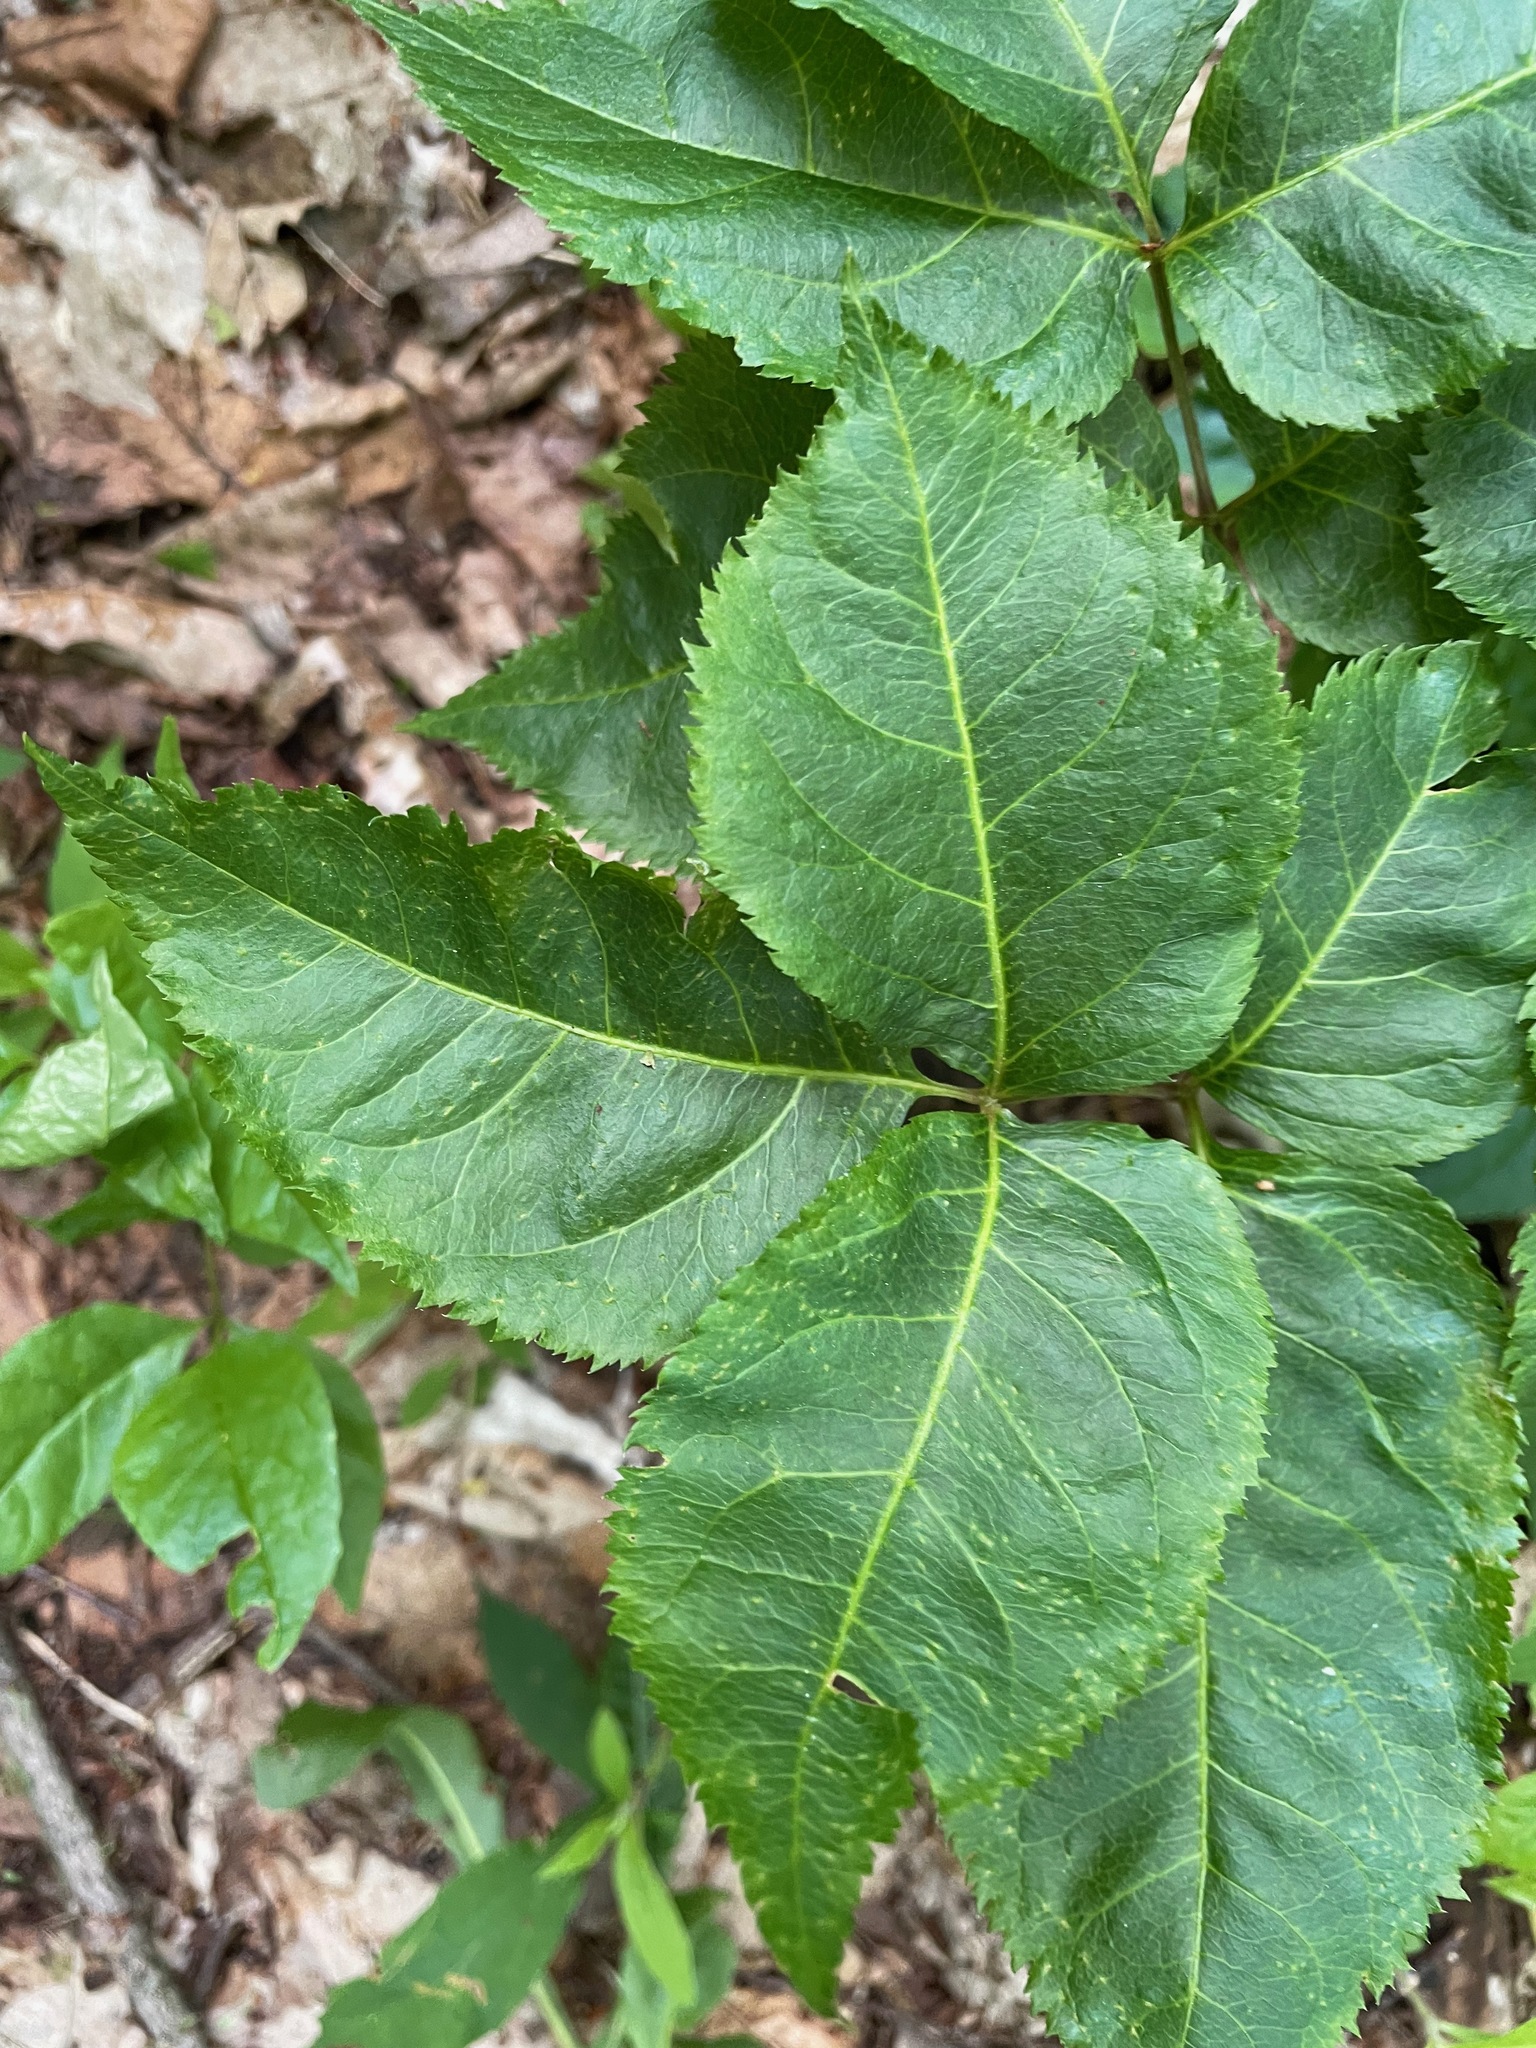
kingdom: Plantae
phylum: Tracheophyta
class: Magnoliopsida
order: Apiales
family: Araliaceae
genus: Aralia
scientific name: Aralia nudicaulis
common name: Wild sarsaparilla
